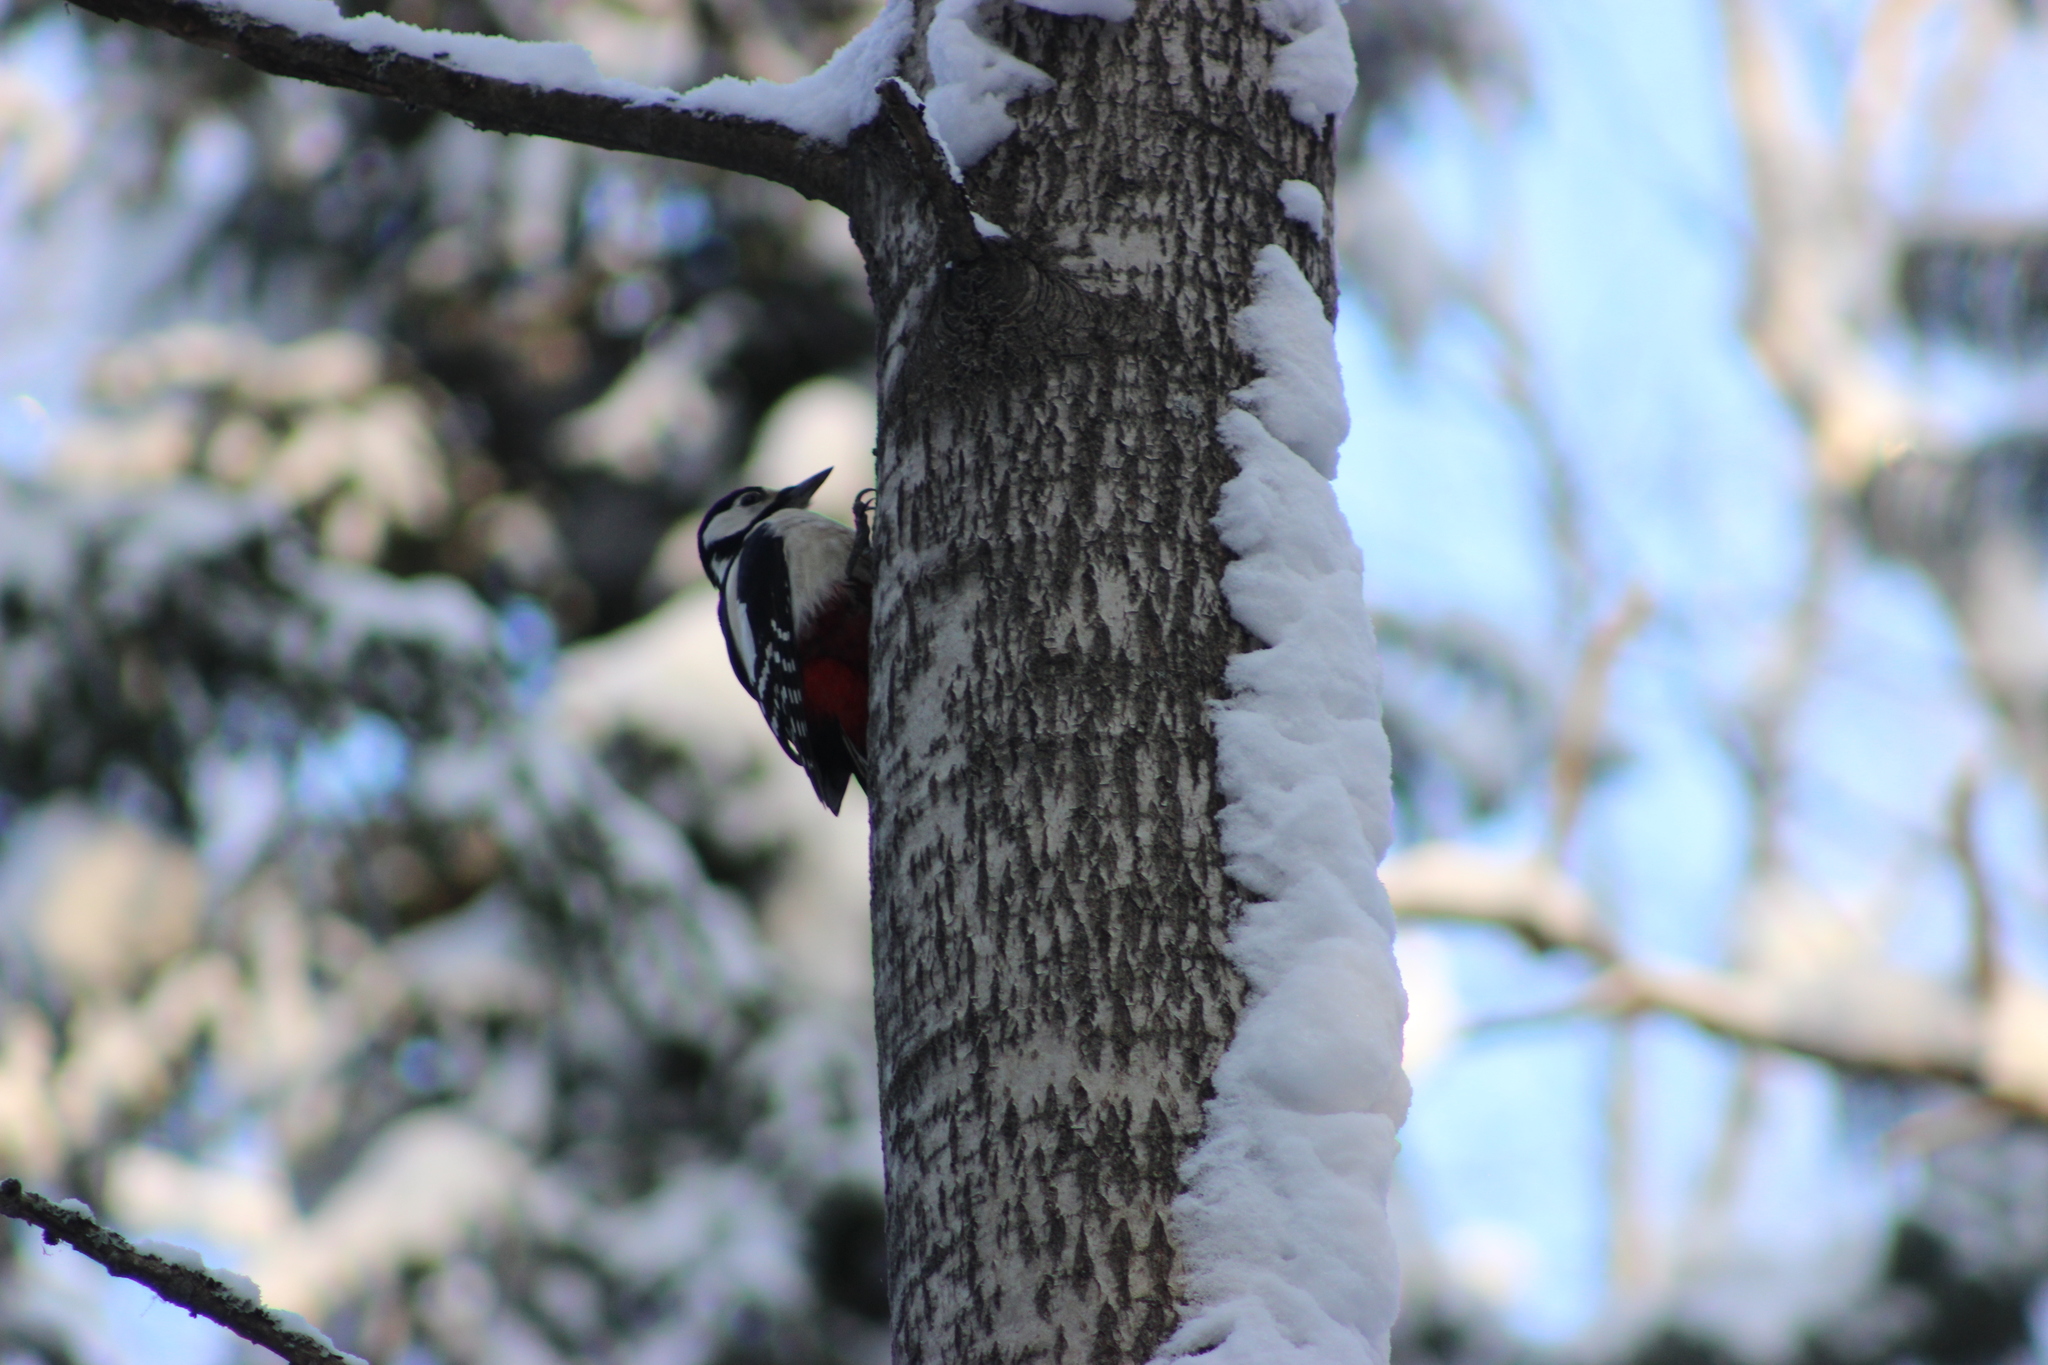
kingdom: Animalia
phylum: Chordata
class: Aves
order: Piciformes
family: Picidae
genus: Dendrocopos
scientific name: Dendrocopos major
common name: Great spotted woodpecker
